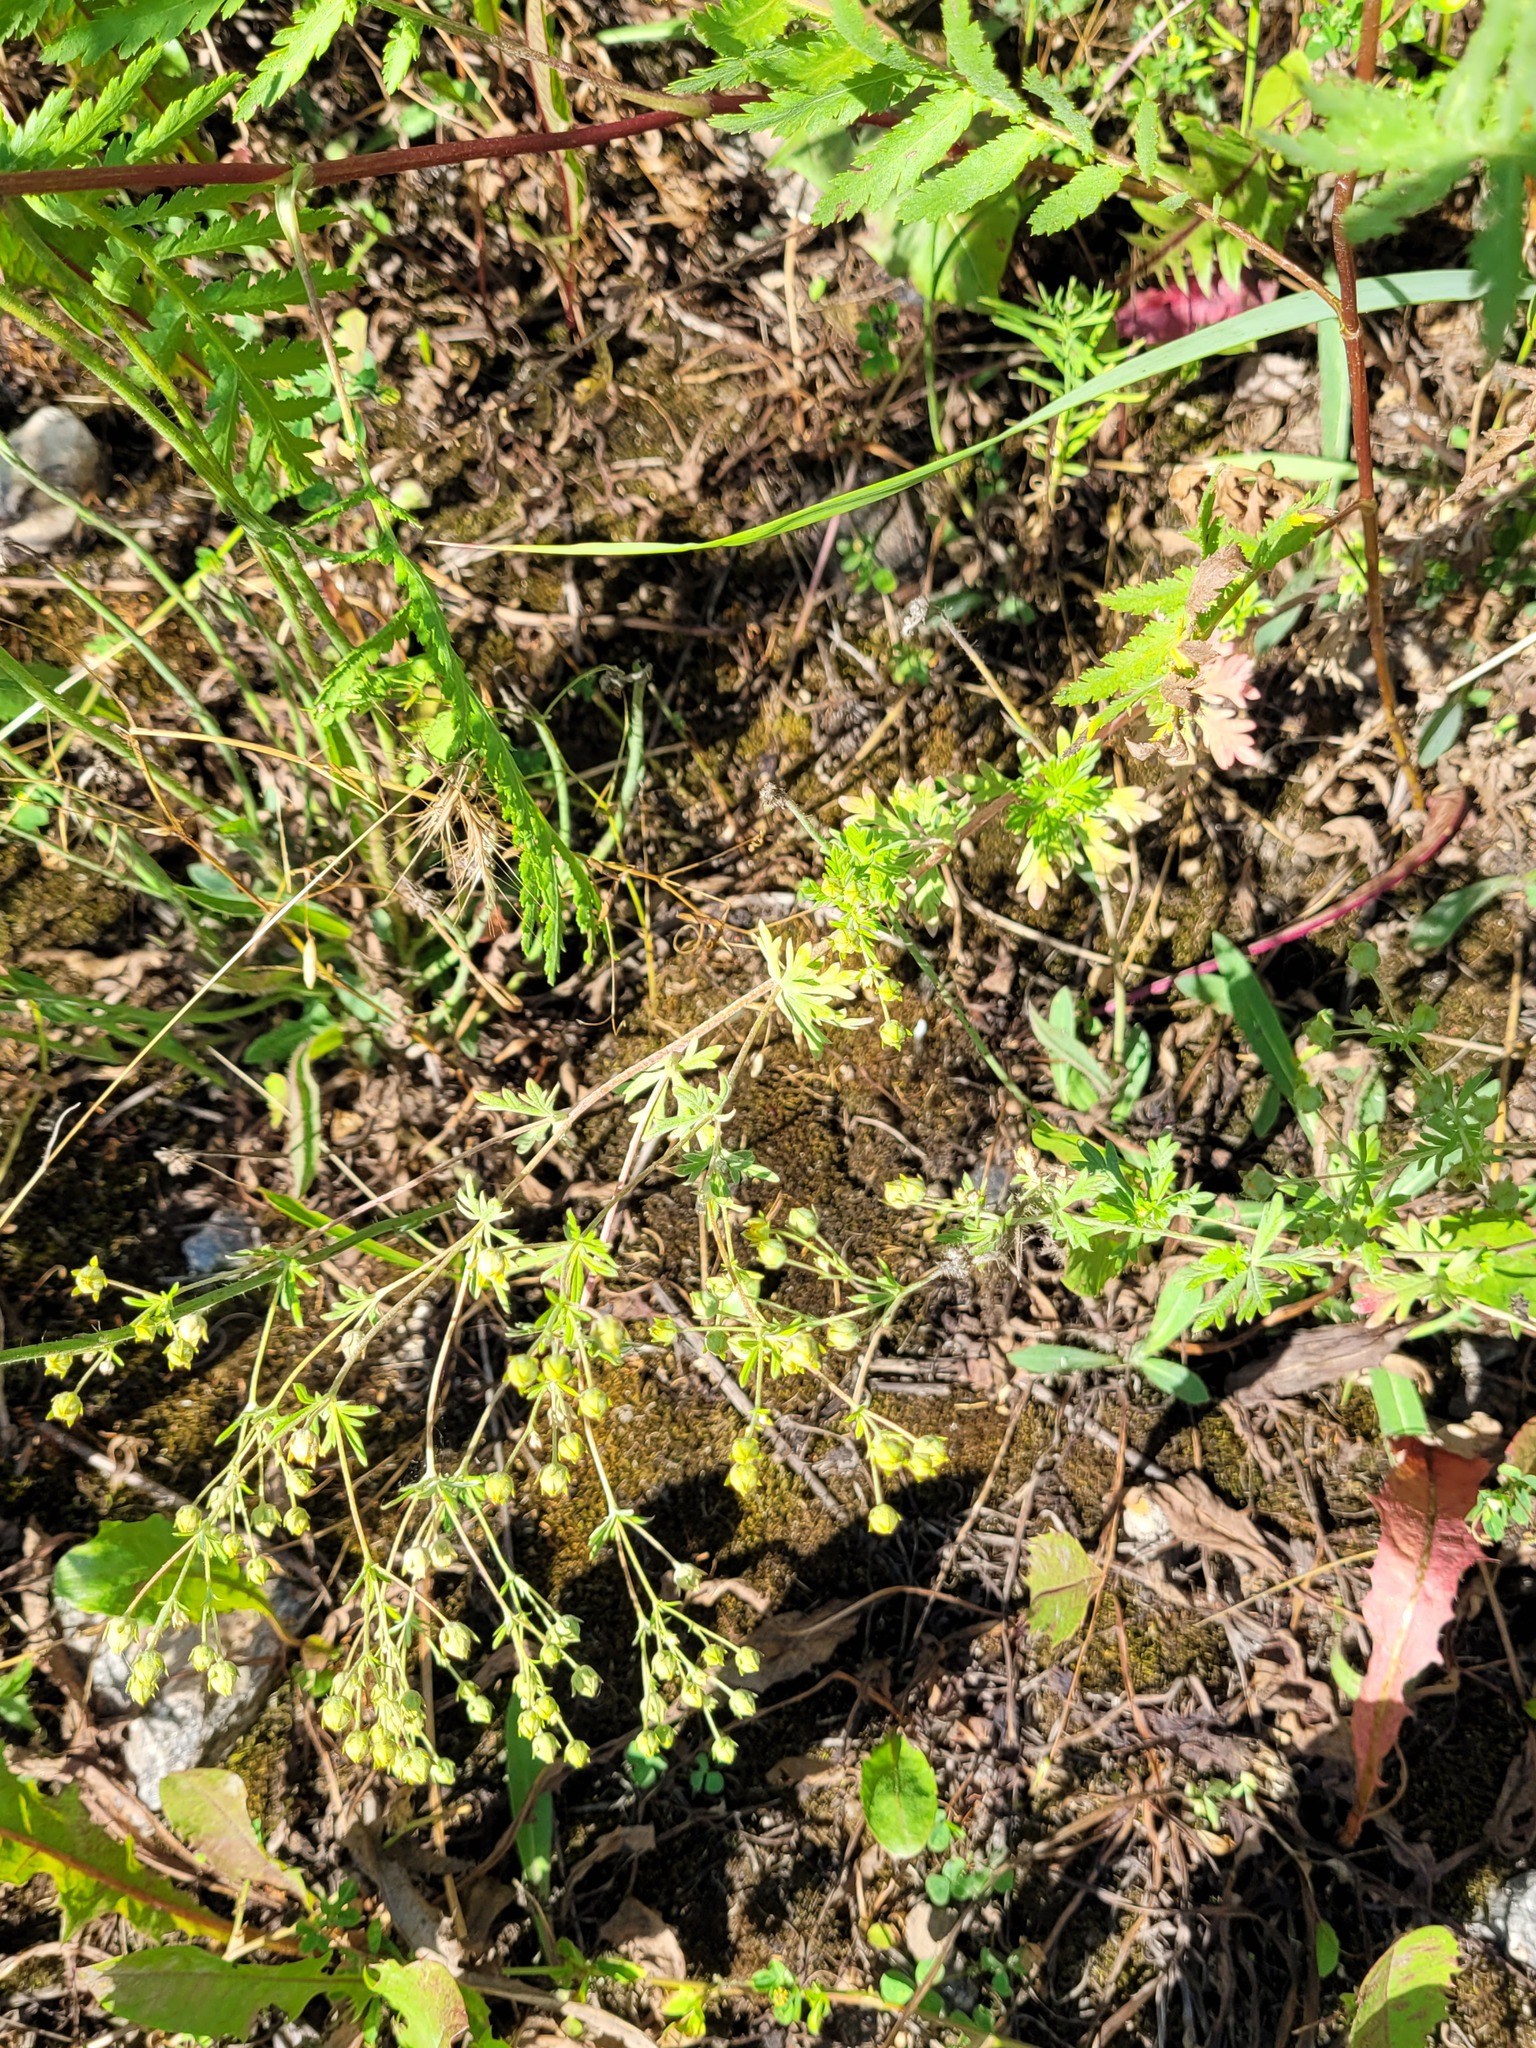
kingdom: Plantae
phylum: Tracheophyta
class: Magnoliopsida
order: Rosales
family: Rosaceae
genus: Potentilla
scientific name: Potentilla argentea
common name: Hoary cinquefoil
